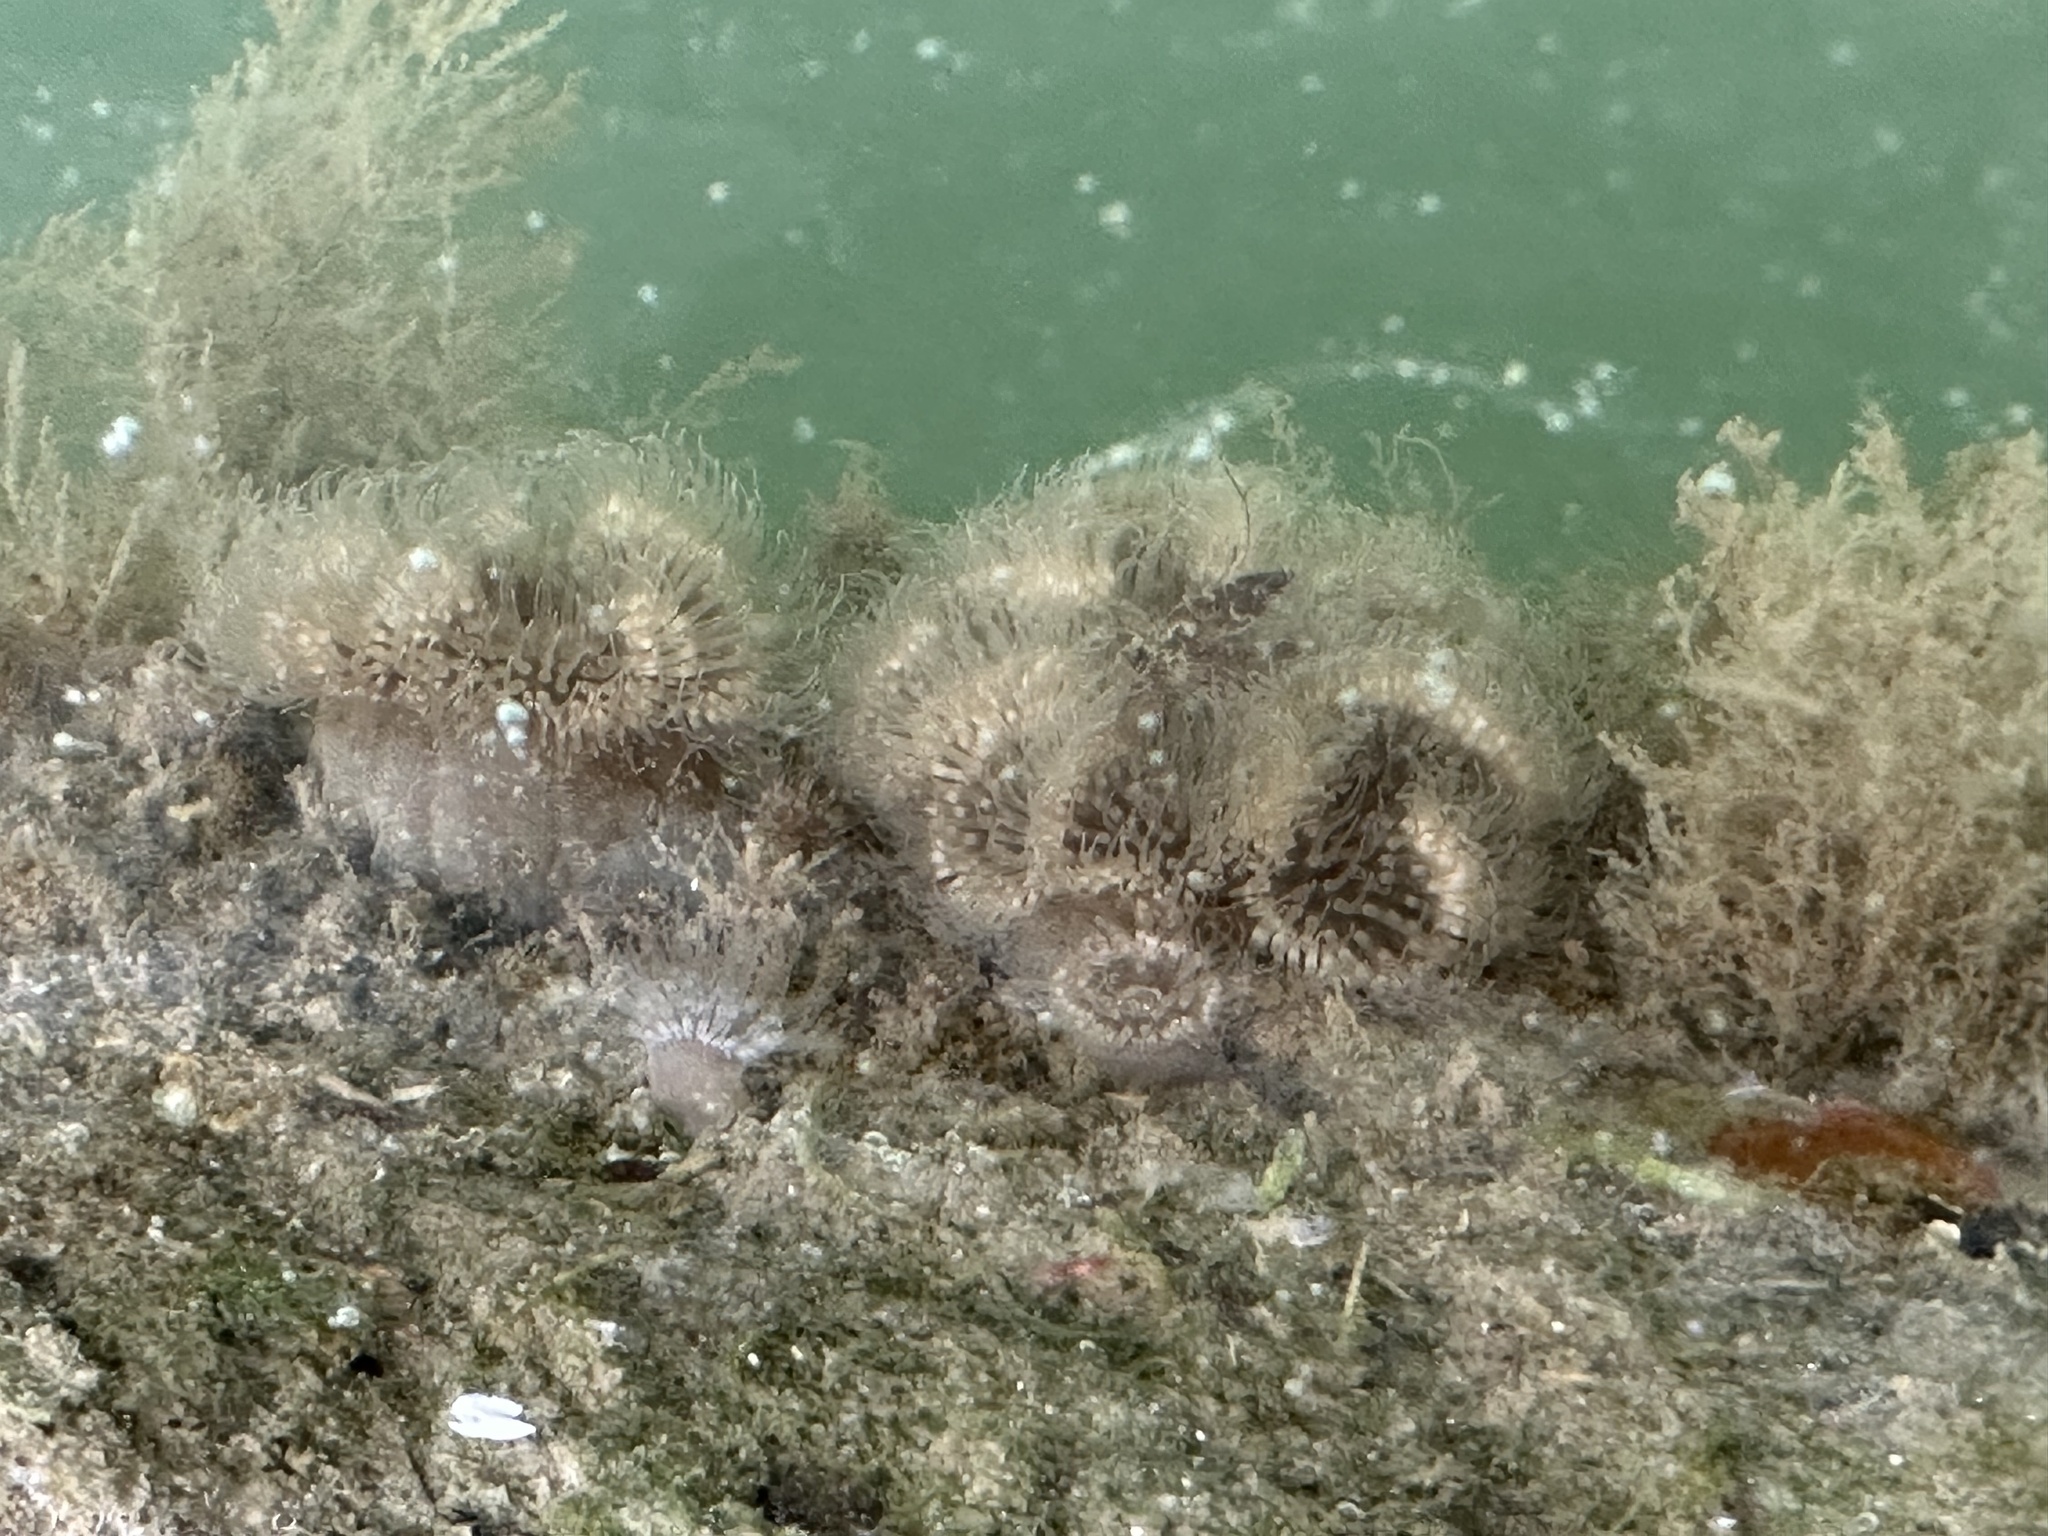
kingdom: Animalia
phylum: Cnidaria
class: Anthozoa
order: Actiniaria
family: Metridiidae
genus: Metridium
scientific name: Metridium senile
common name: Clonal plumose anemone
